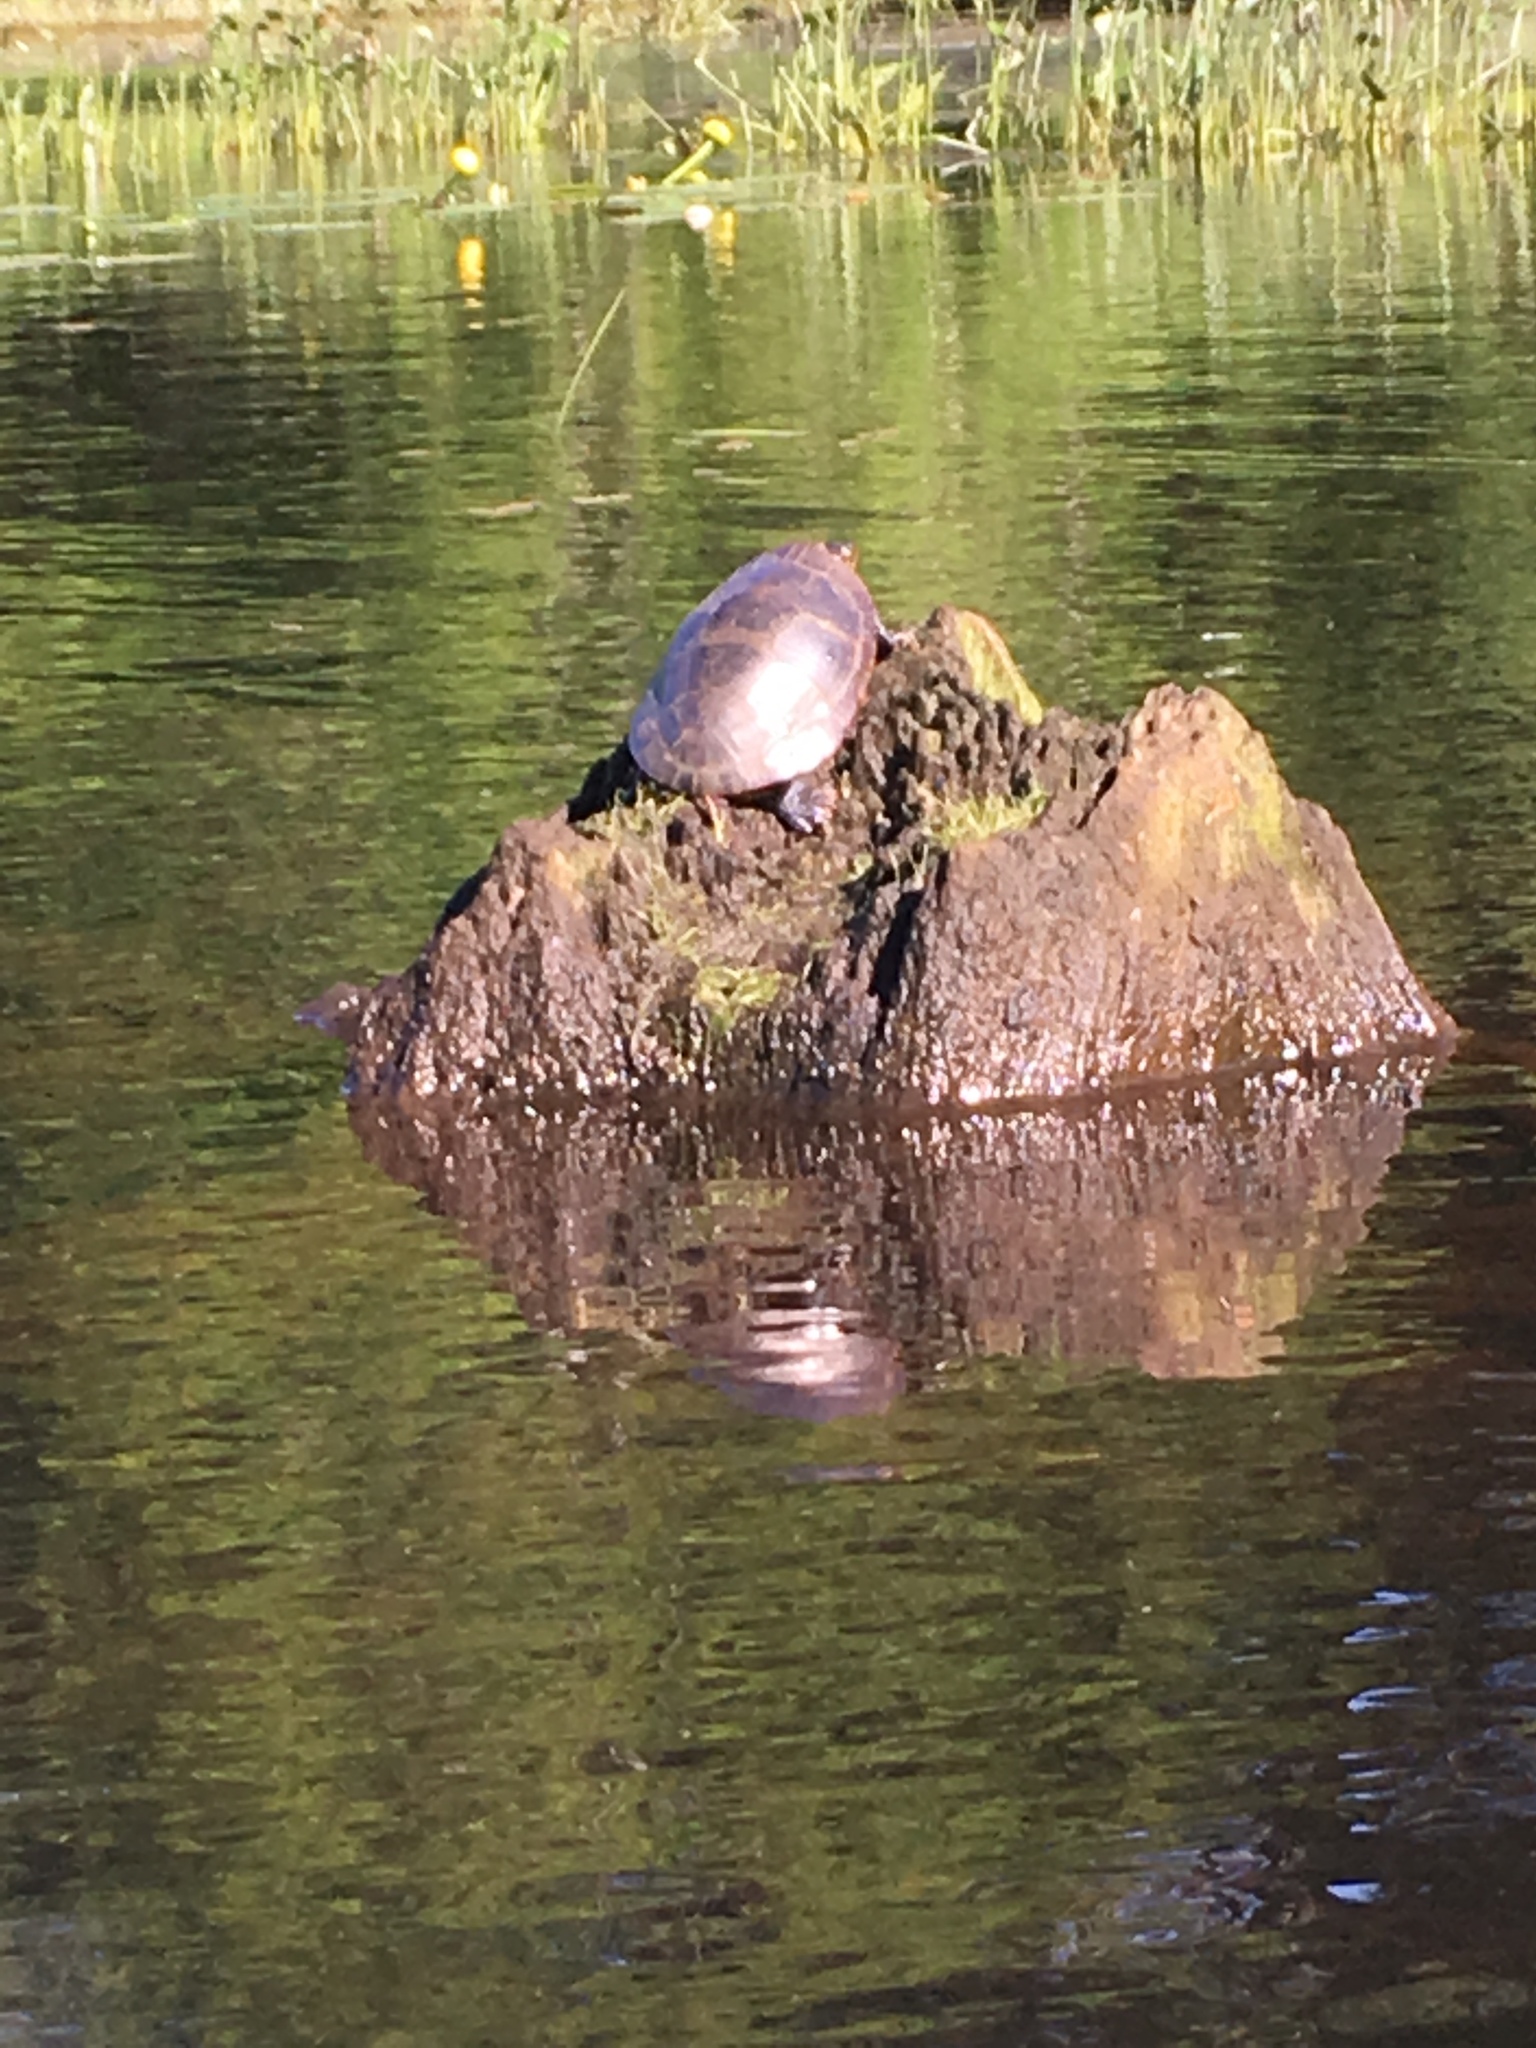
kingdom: Animalia
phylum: Chordata
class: Testudines
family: Emydidae
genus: Chrysemys
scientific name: Chrysemys picta
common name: Painted turtle
